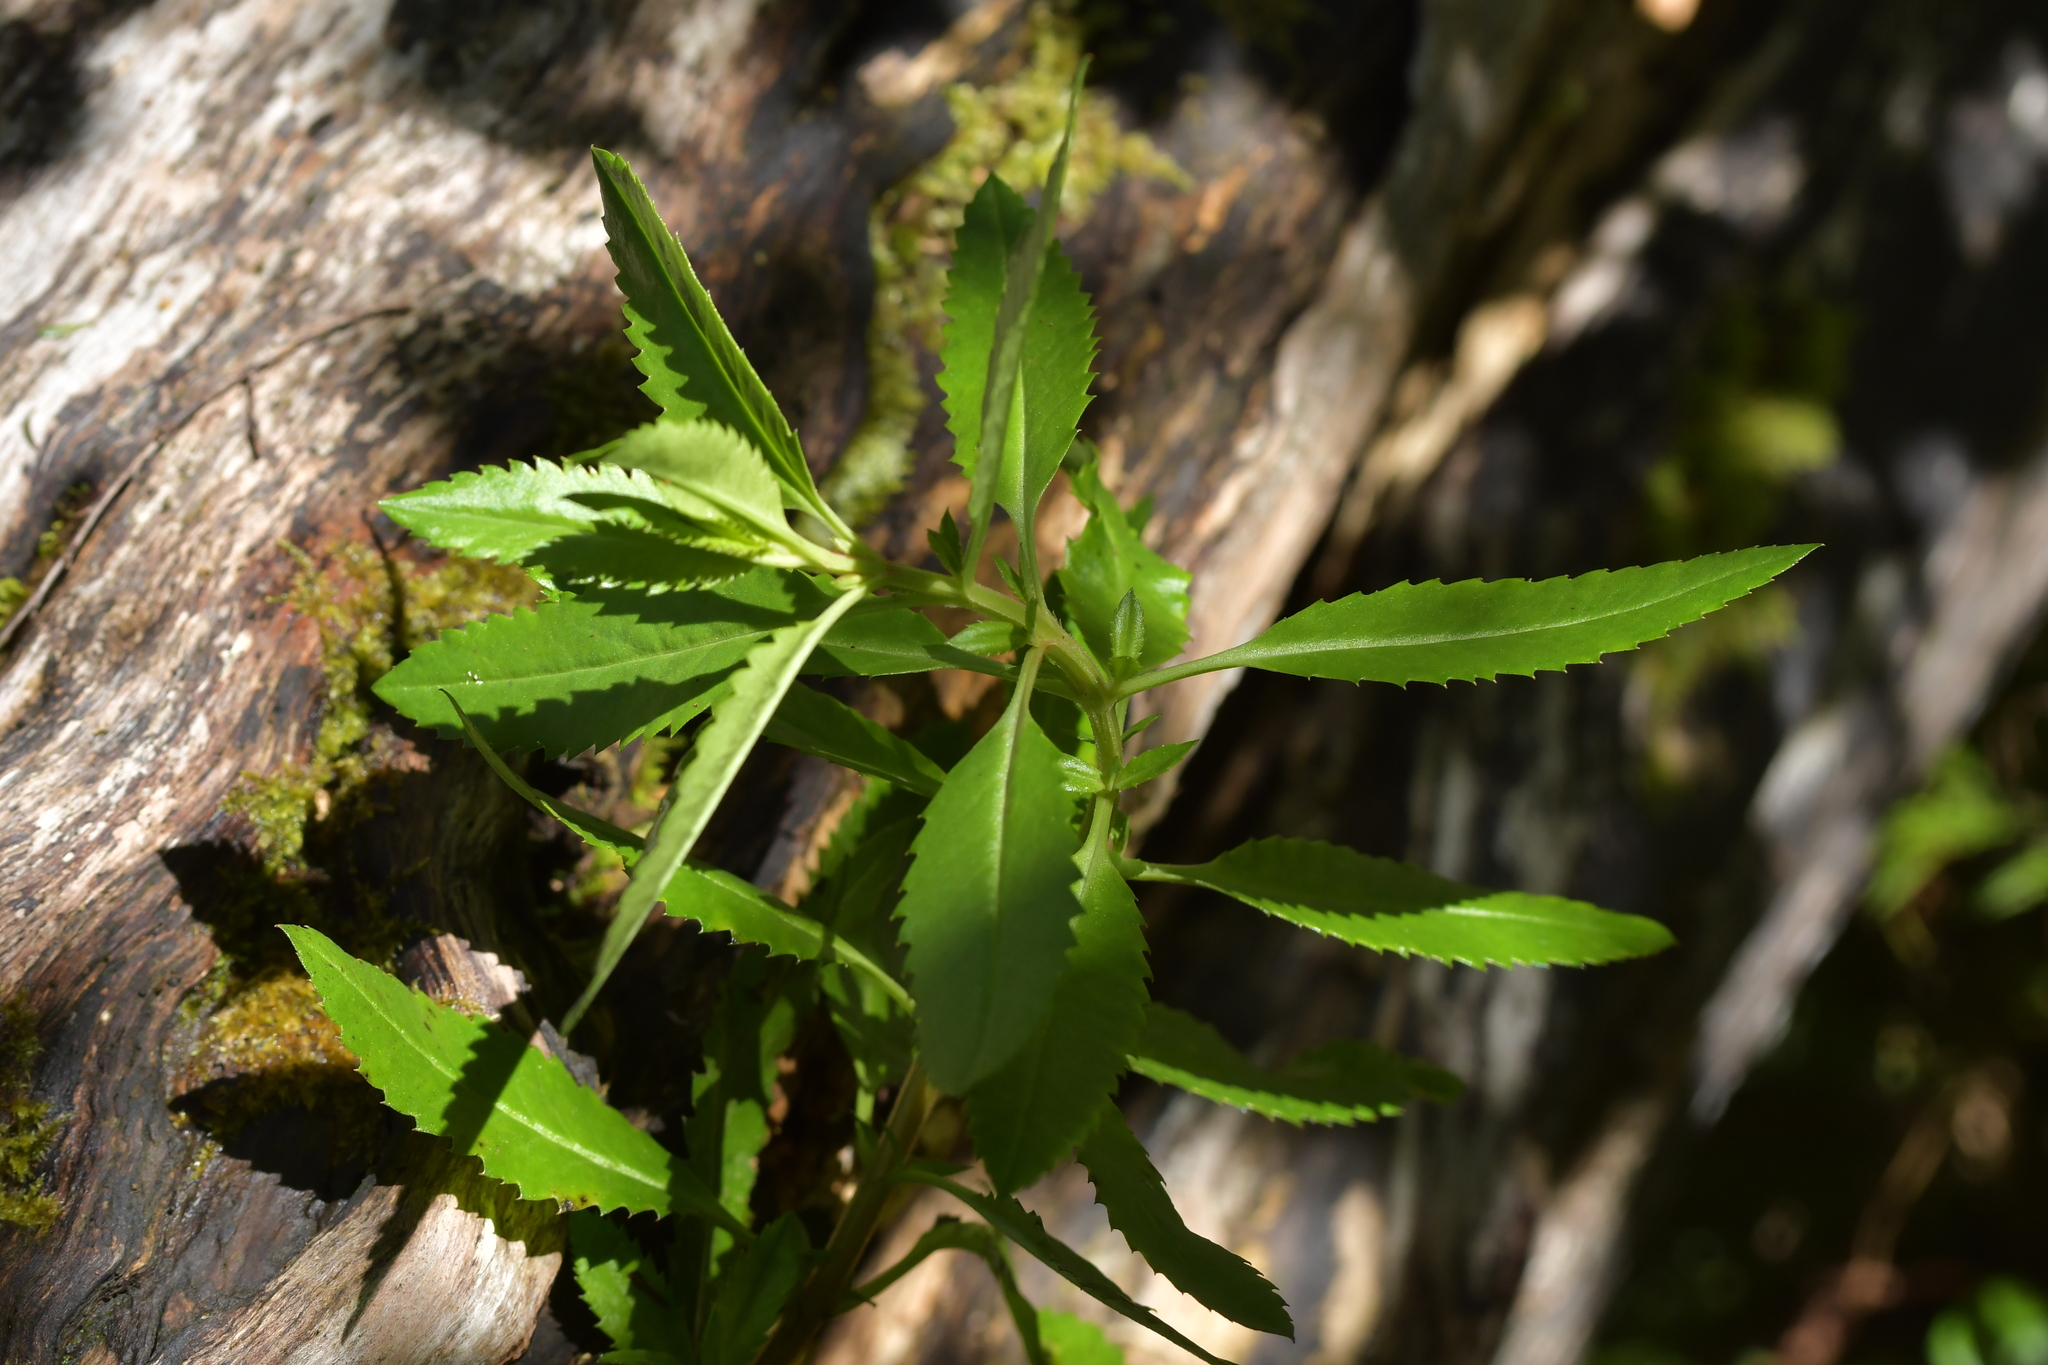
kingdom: Plantae
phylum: Tracheophyta
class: Magnoliopsida
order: Saxifragales
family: Haloragaceae
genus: Haloragis
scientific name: Haloragis erecta
